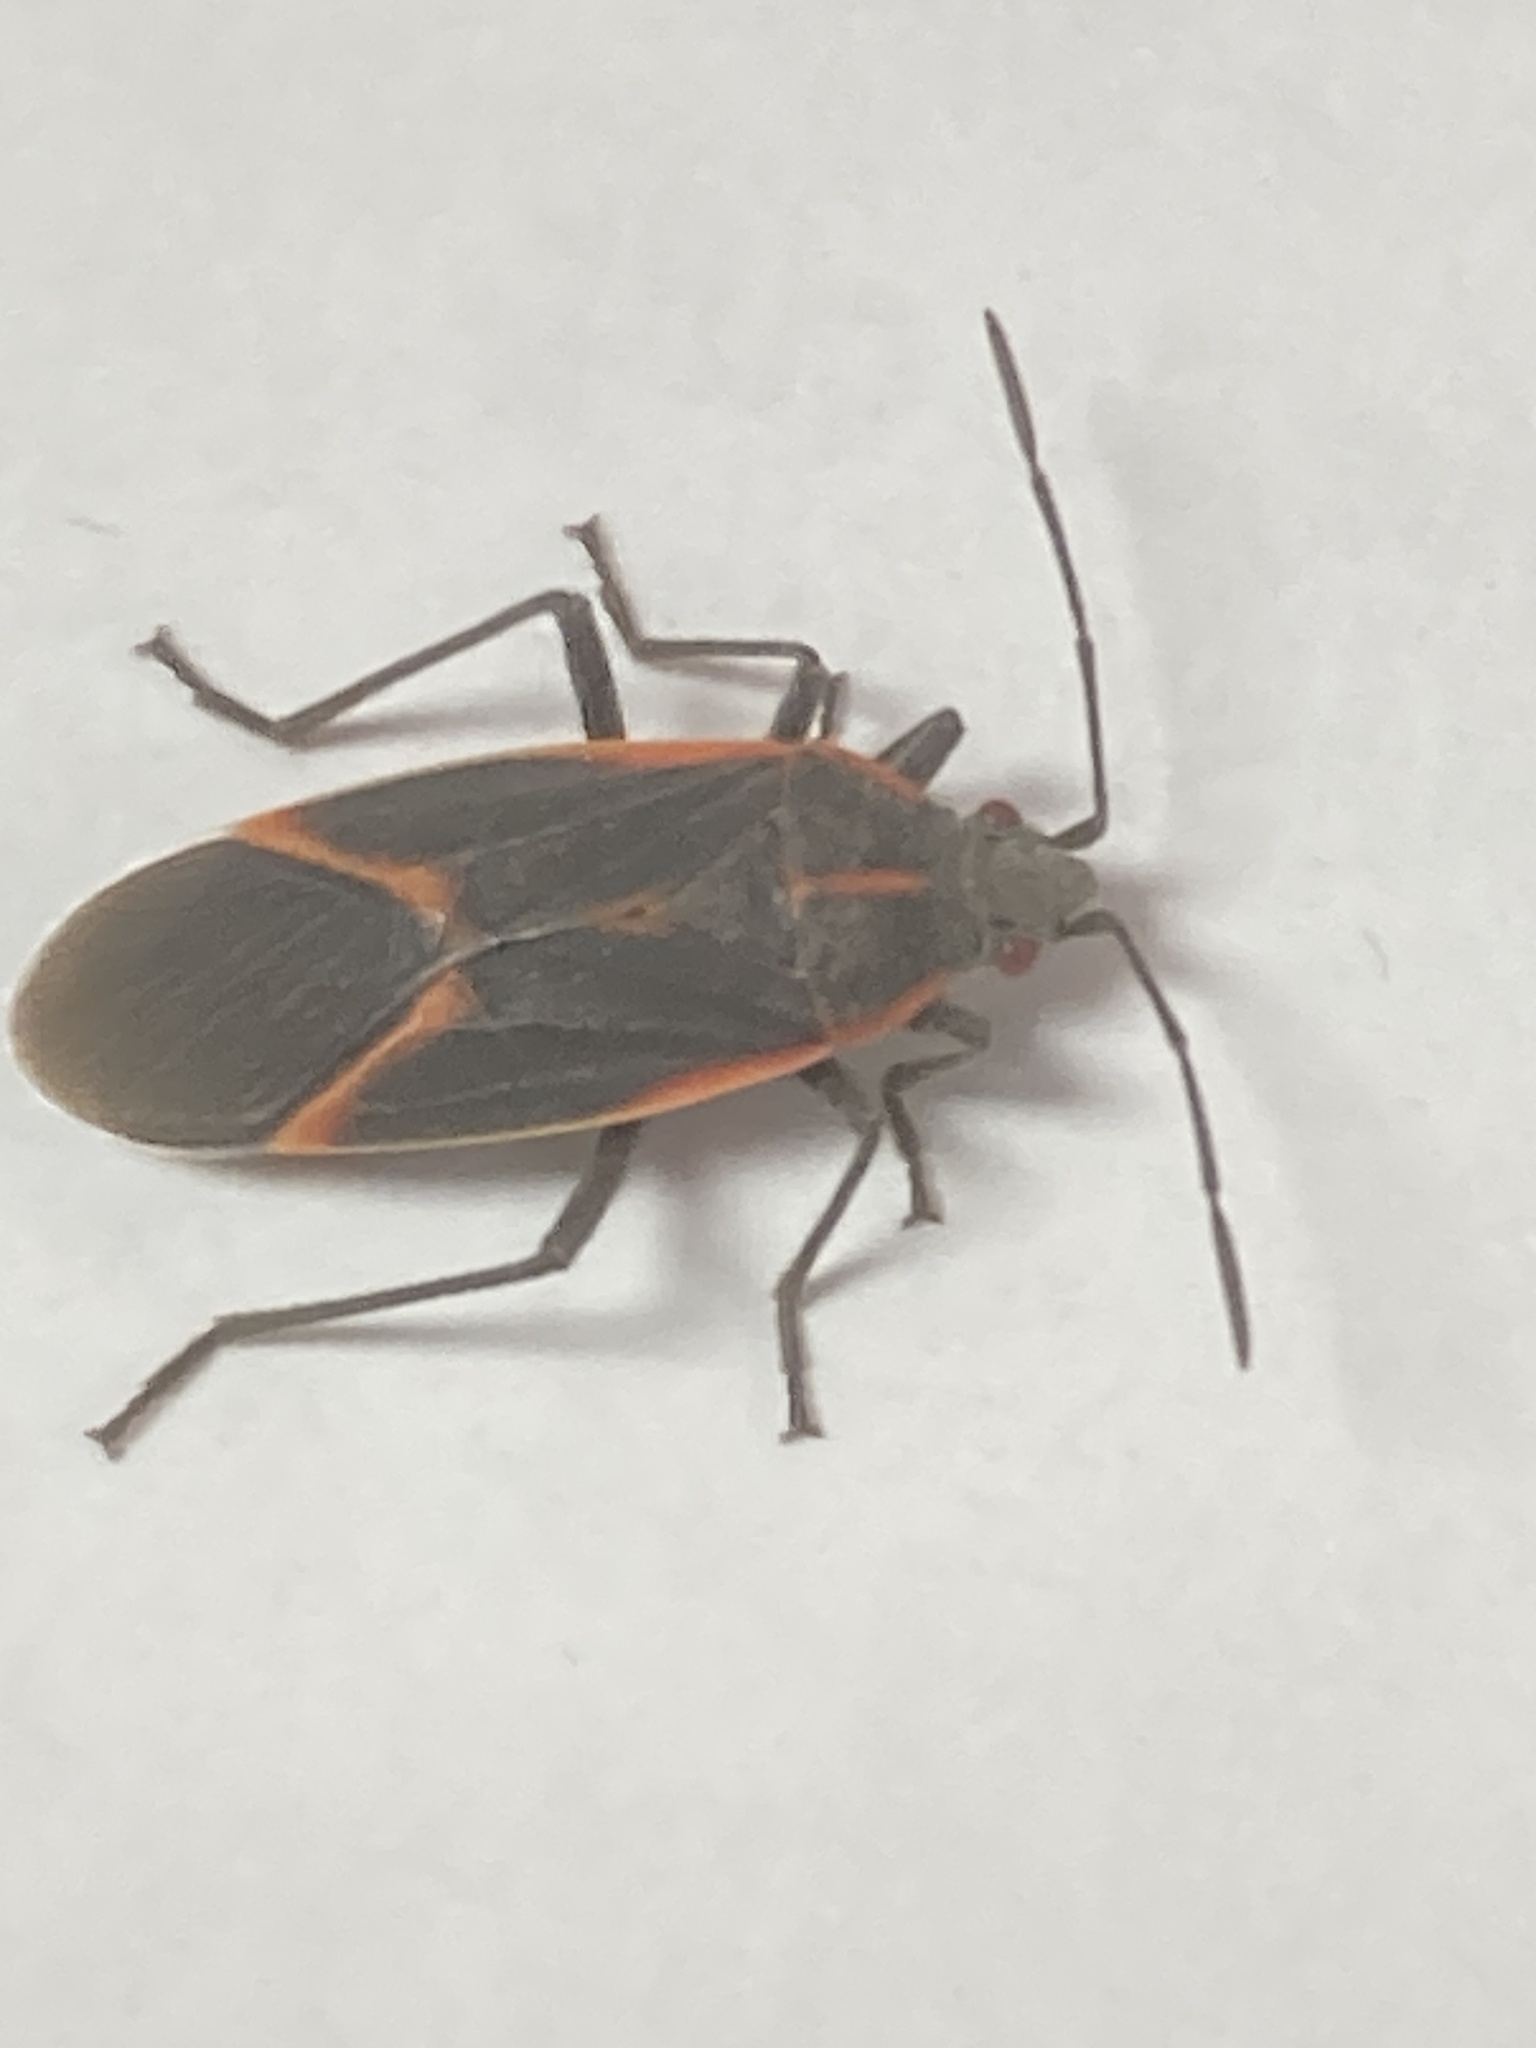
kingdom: Animalia
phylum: Arthropoda
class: Insecta
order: Hemiptera
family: Rhopalidae
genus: Boisea
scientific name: Boisea trivittata
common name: Boxelder bug
